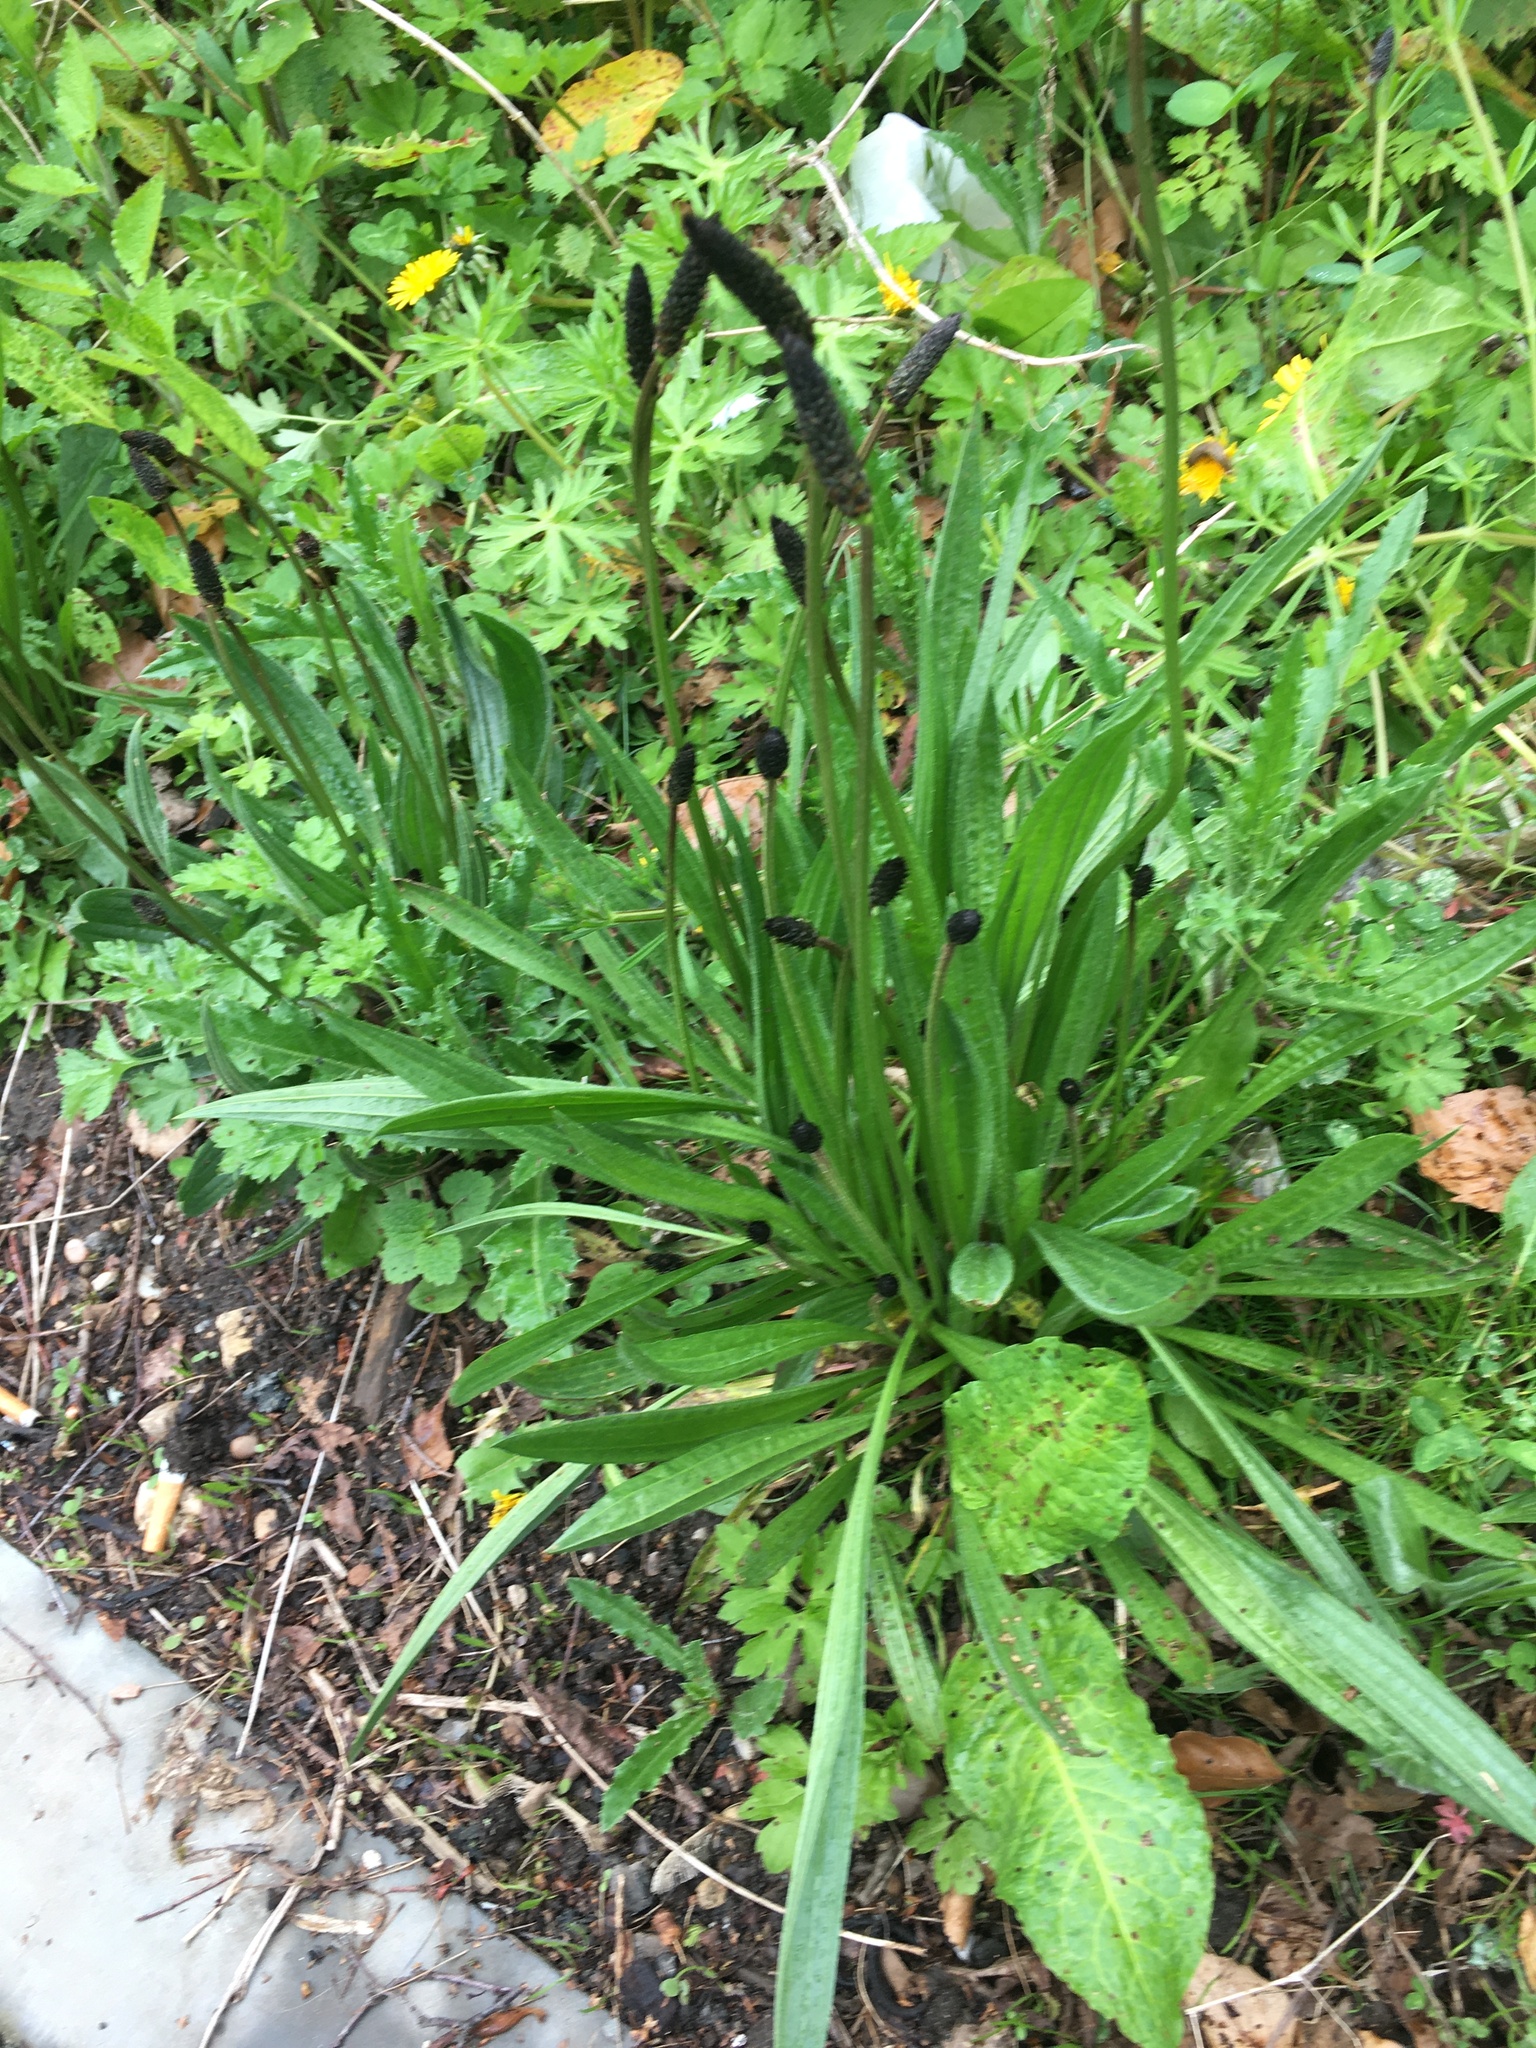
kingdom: Plantae
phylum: Tracheophyta
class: Magnoliopsida
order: Lamiales
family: Plantaginaceae
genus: Plantago
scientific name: Plantago lanceolata
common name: Ribwort plantain
